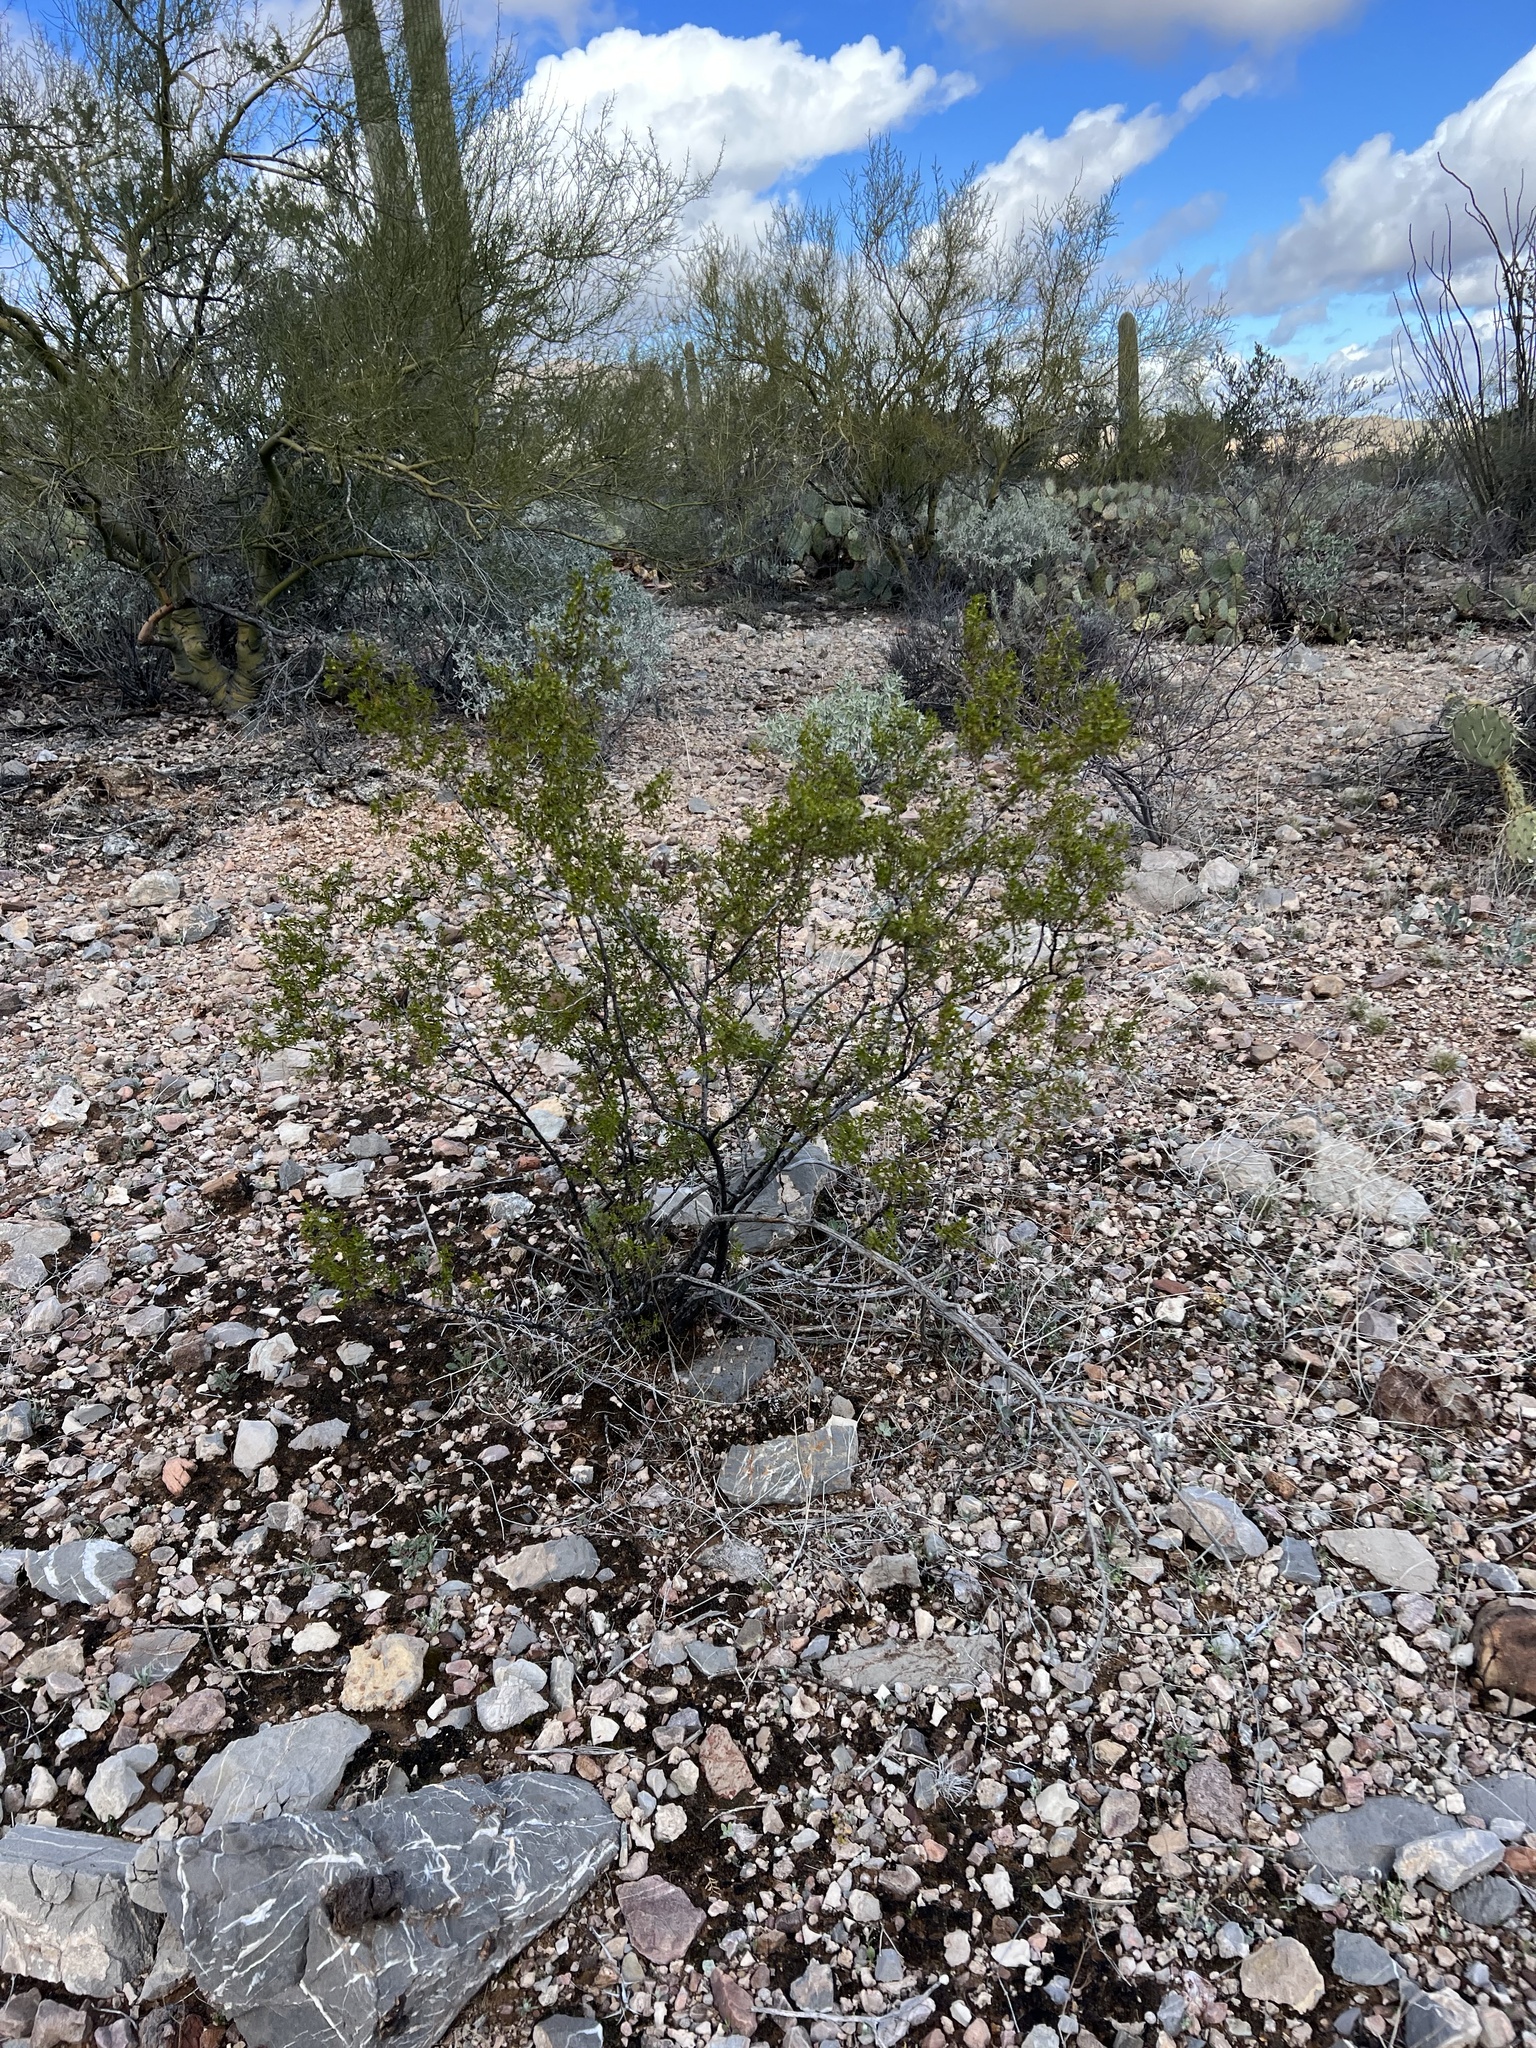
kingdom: Plantae
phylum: Tracheophyta
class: Magnoliopsida
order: Zygophyllales
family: Zygophyllaceae
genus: Larrea
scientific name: Larrea tridentata
